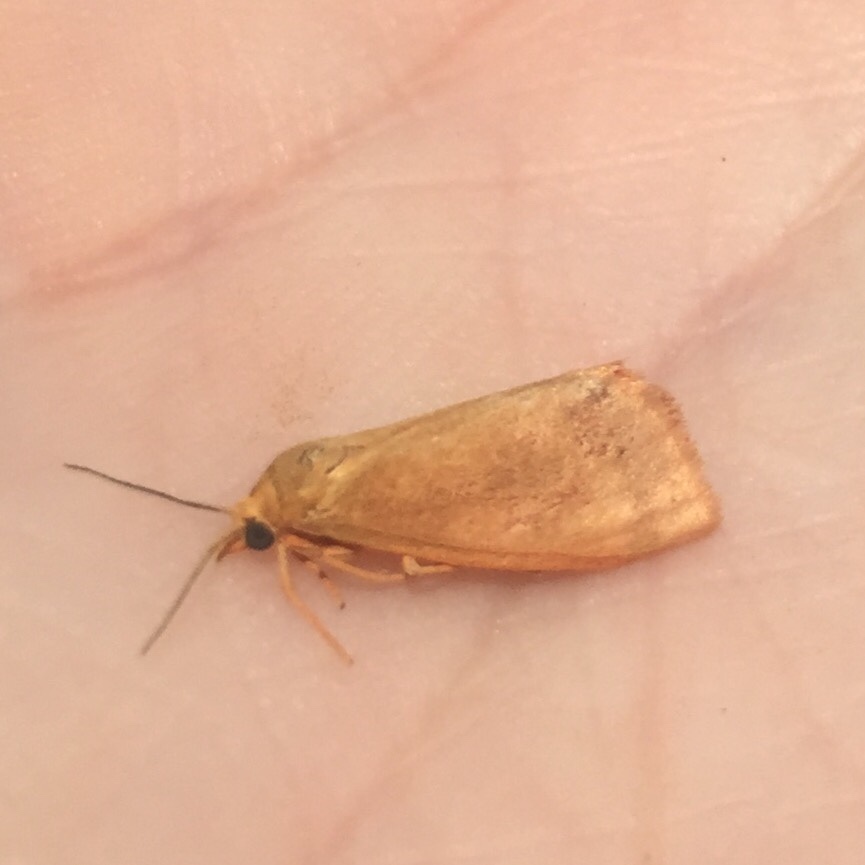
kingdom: Animalia
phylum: Arthropoda
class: Insecta
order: Lepidoptera
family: Erebidae
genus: Virbia
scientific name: Virbia aurantiaca
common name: Orange virbia moth
